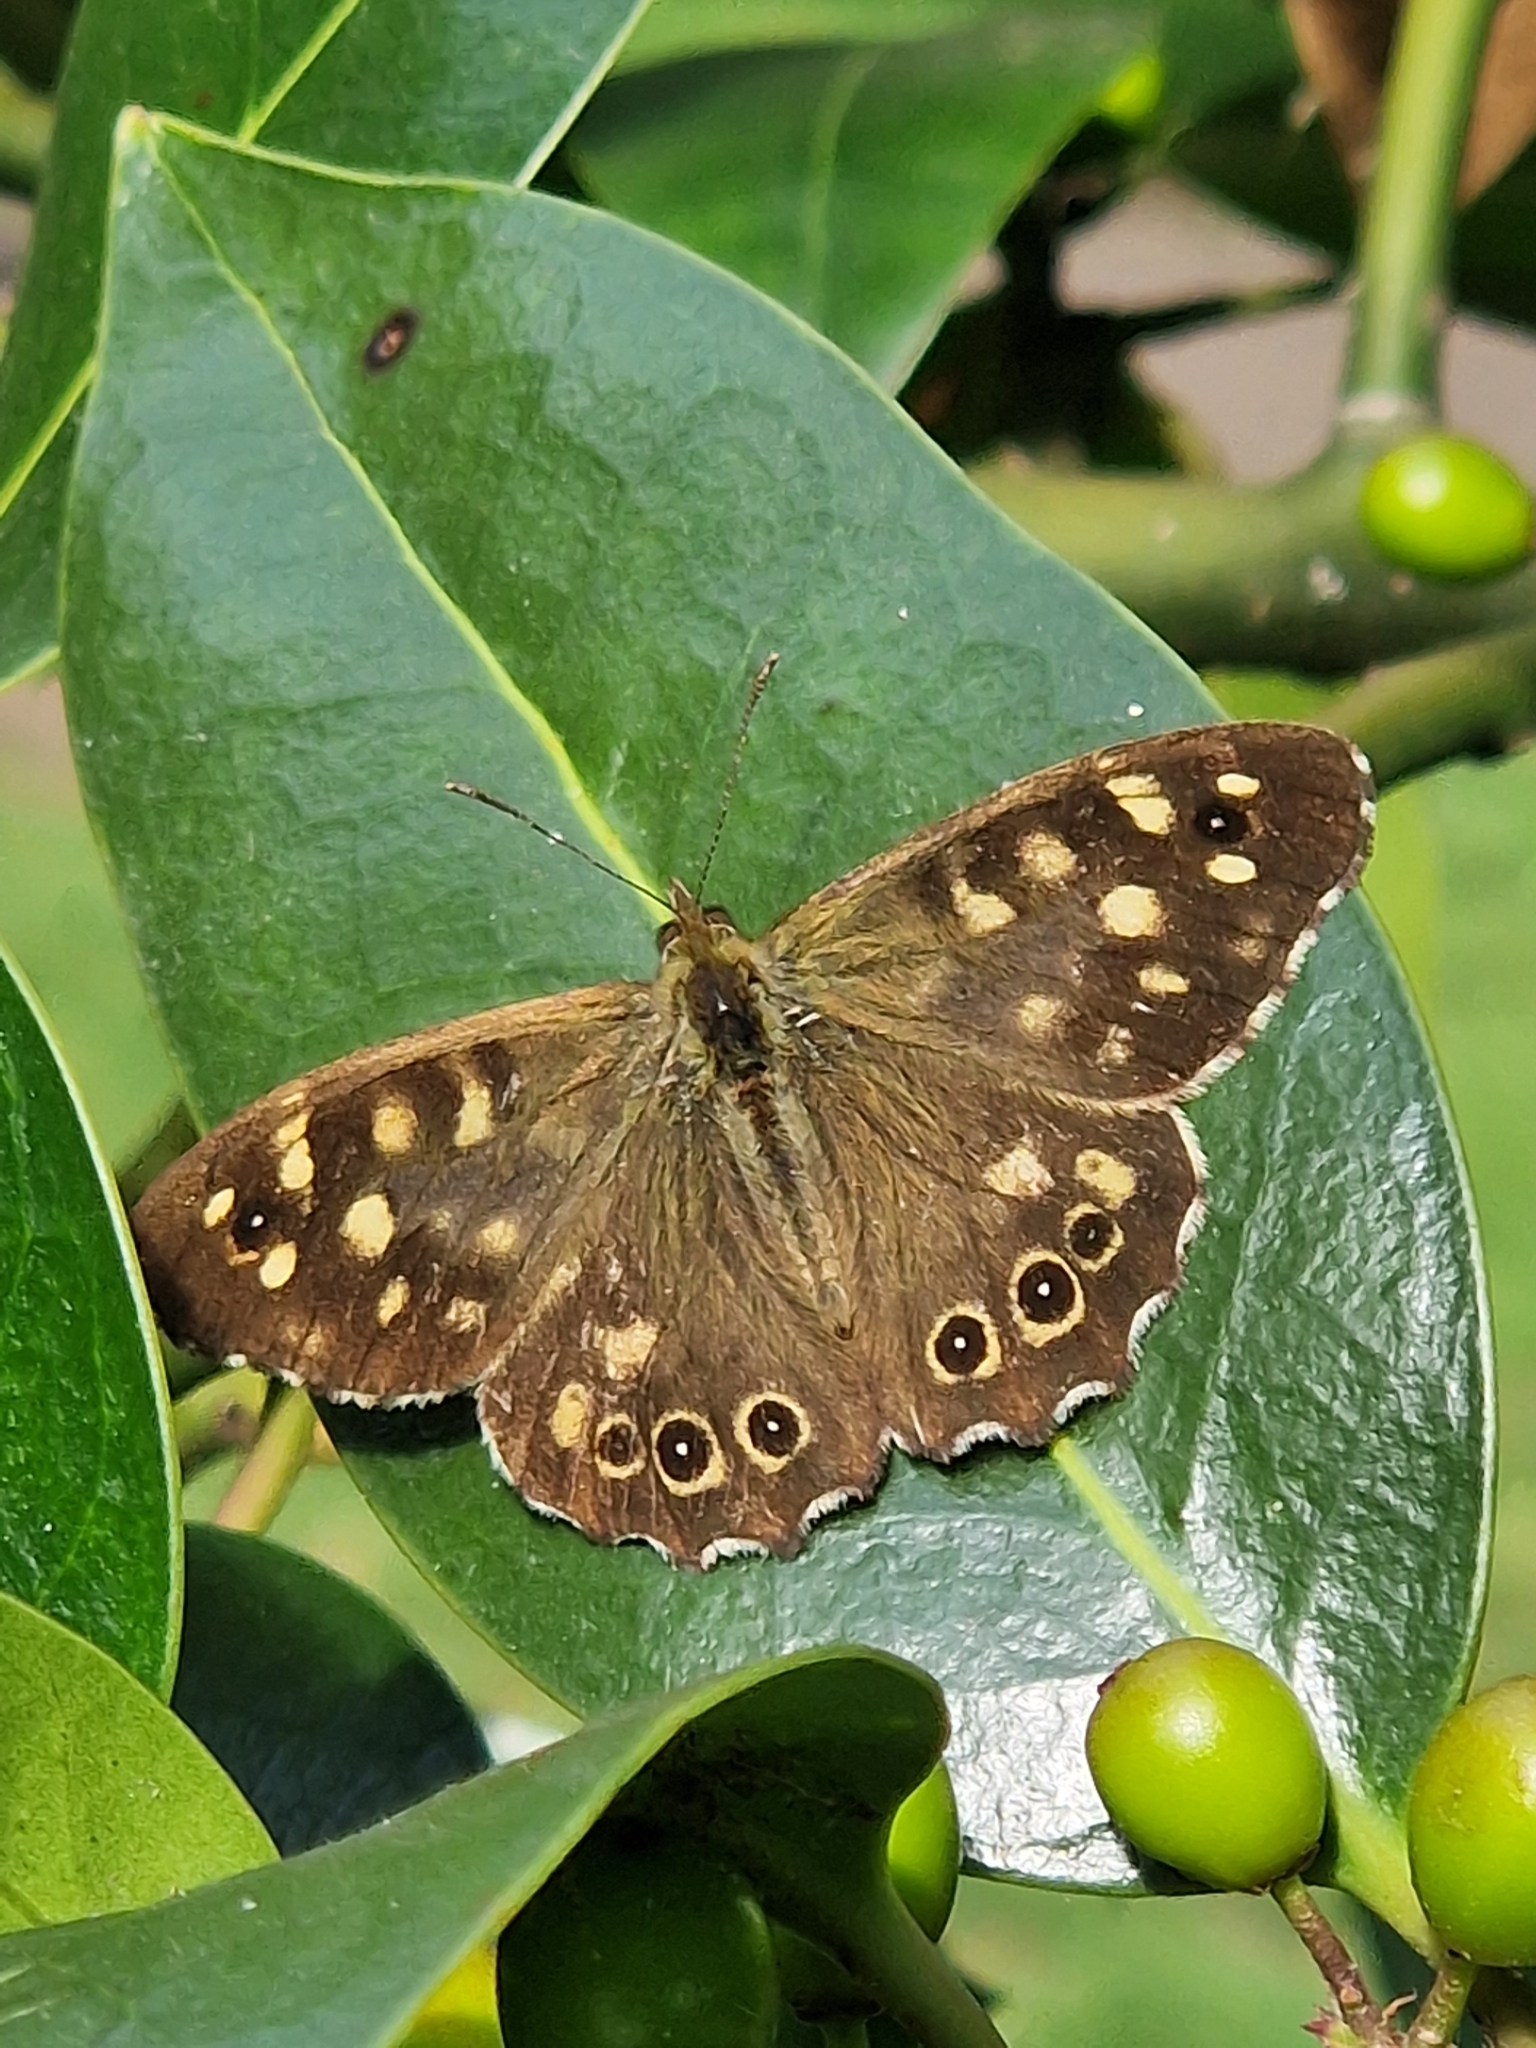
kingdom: Animalia
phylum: Arthropoda
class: Insecta
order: Lepidoptera
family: Nymphalidae
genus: Pararge
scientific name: Pararge aegeria
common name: Speckled wood
